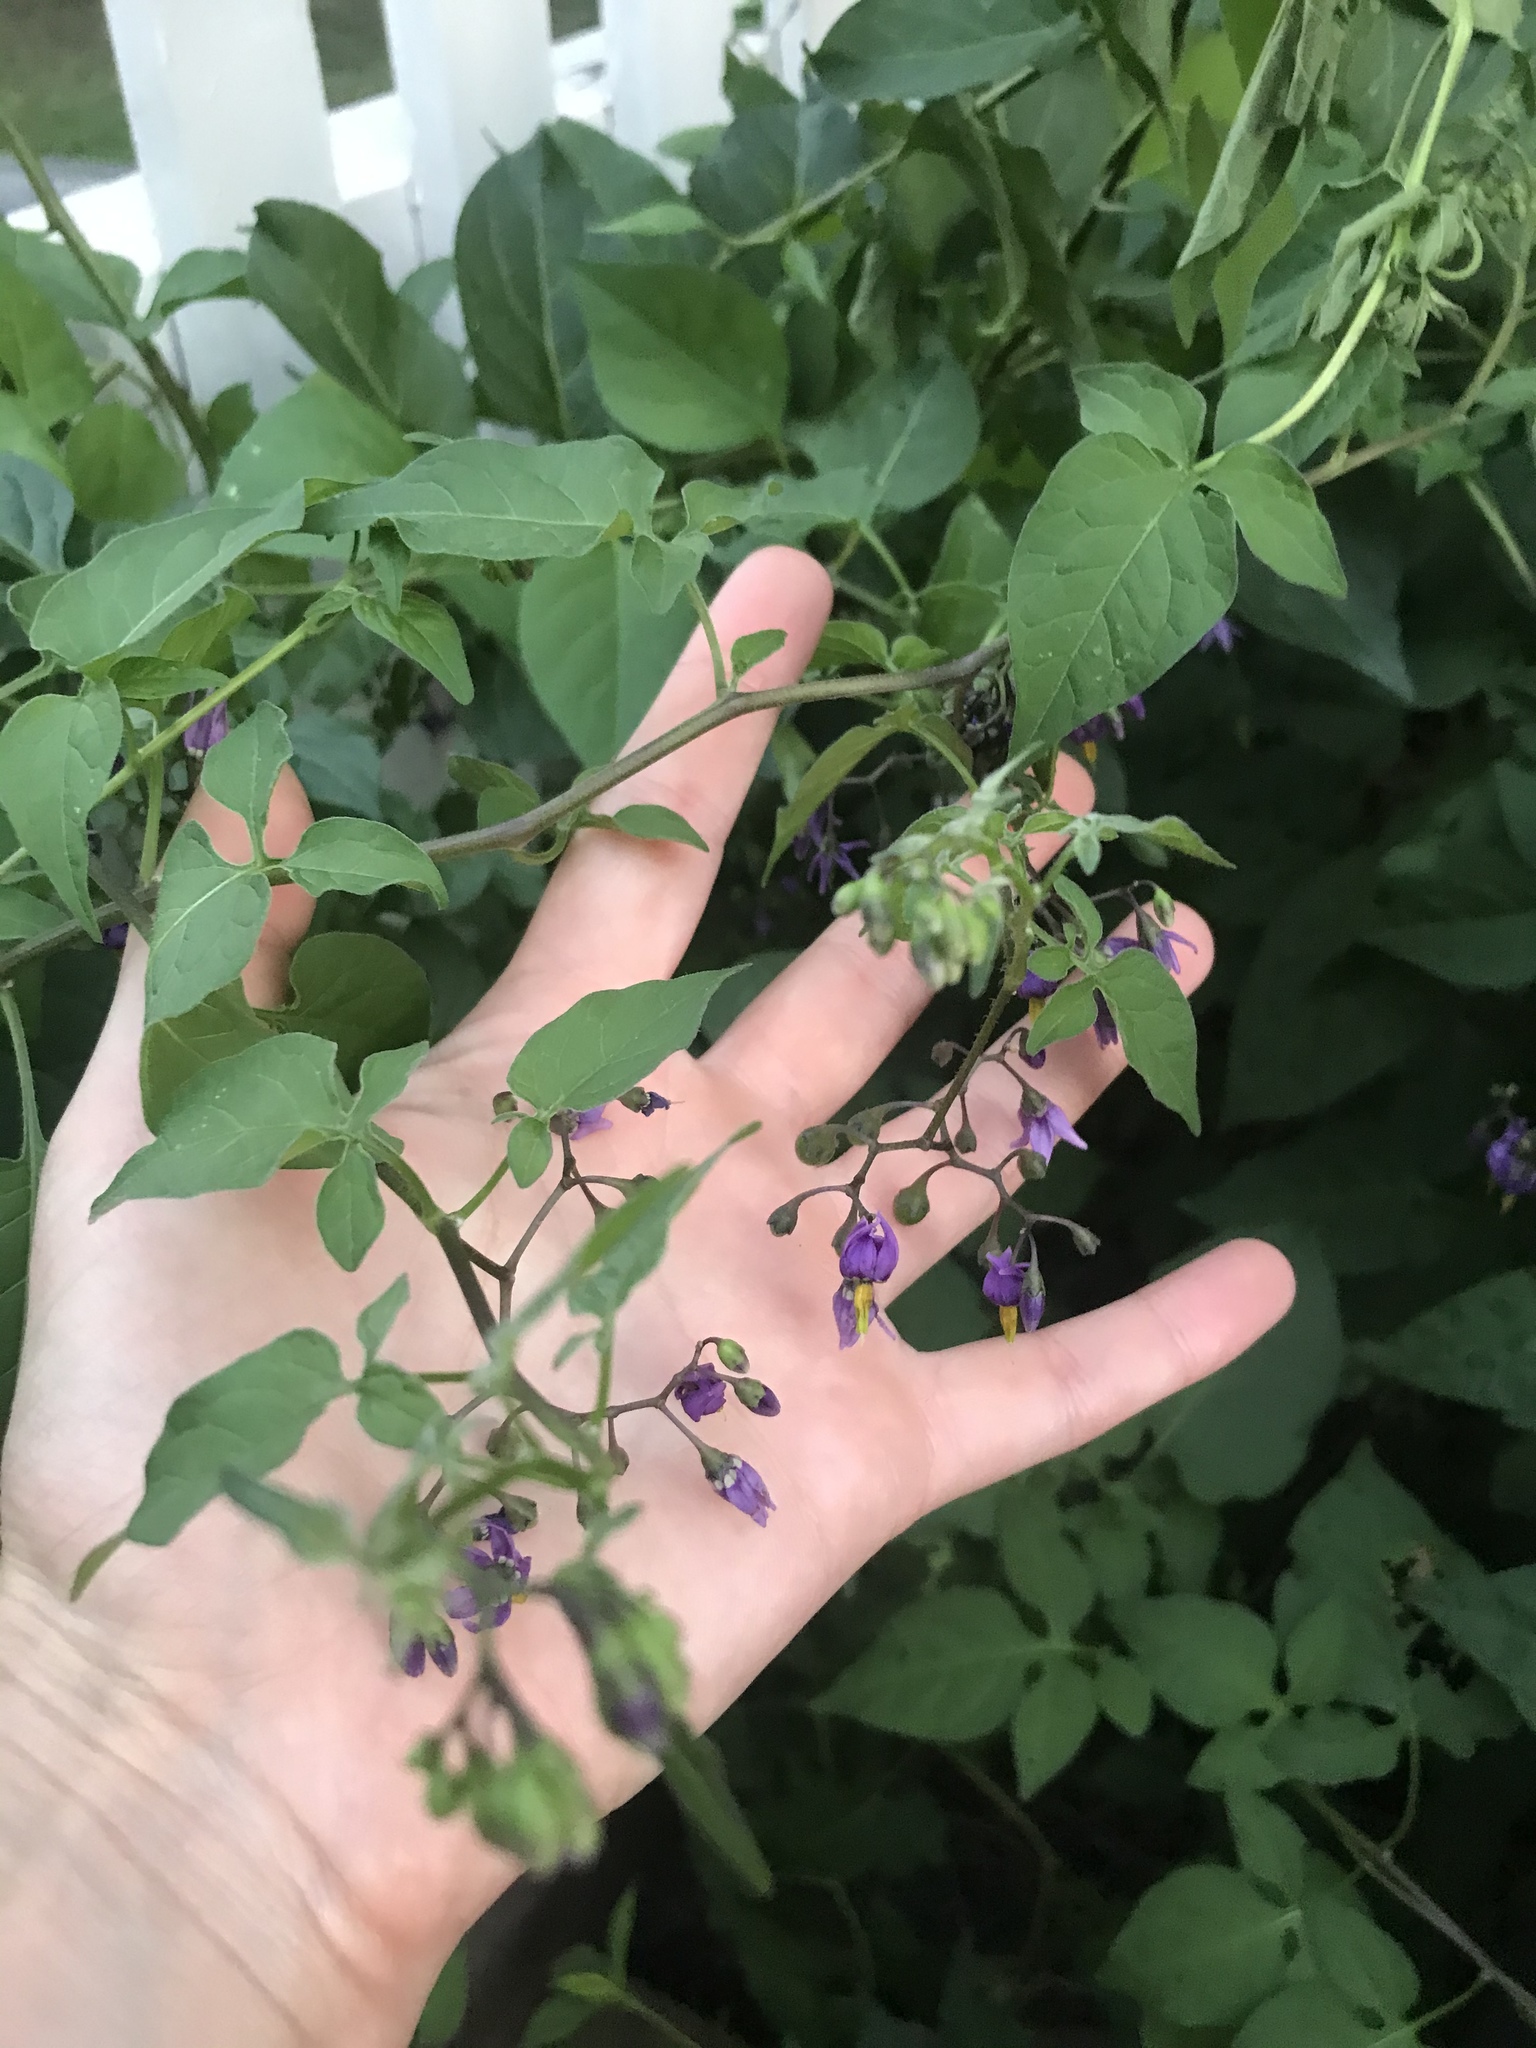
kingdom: Plantae
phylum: Tracheophyta
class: Magnoliopsida
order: Solanales
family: Solanaceae
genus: Solanum
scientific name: Solanum dulcamara
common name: Climbing nightshade
